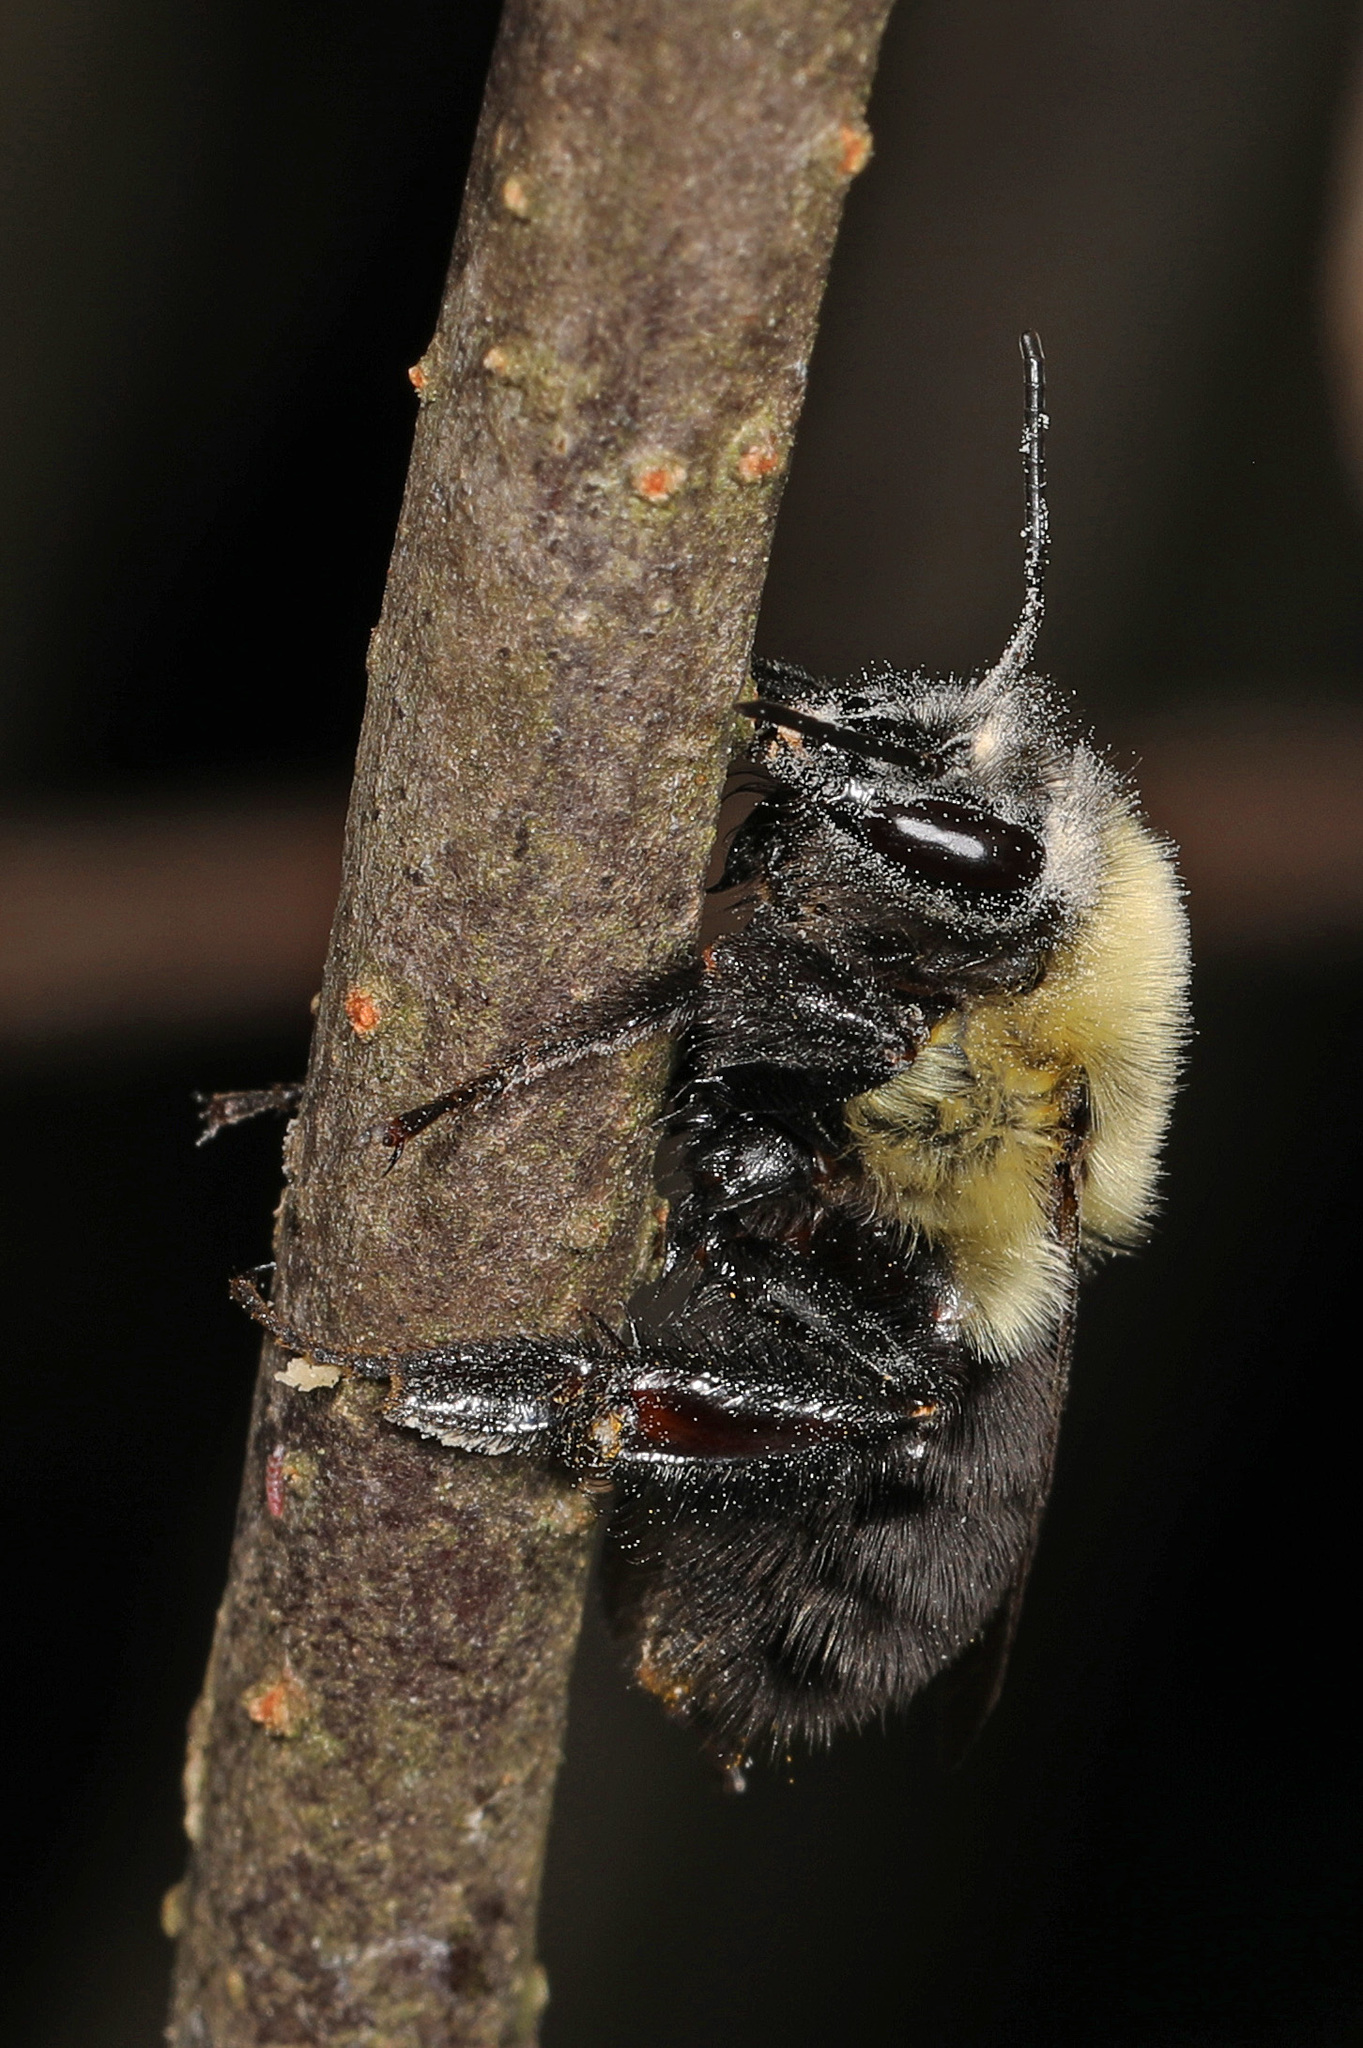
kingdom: Animalia
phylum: Arthropoda
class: Insecta
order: Hymenoptera
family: Apidae
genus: Bombus
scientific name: Bombus impatiens
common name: Common eastern bumble bee
